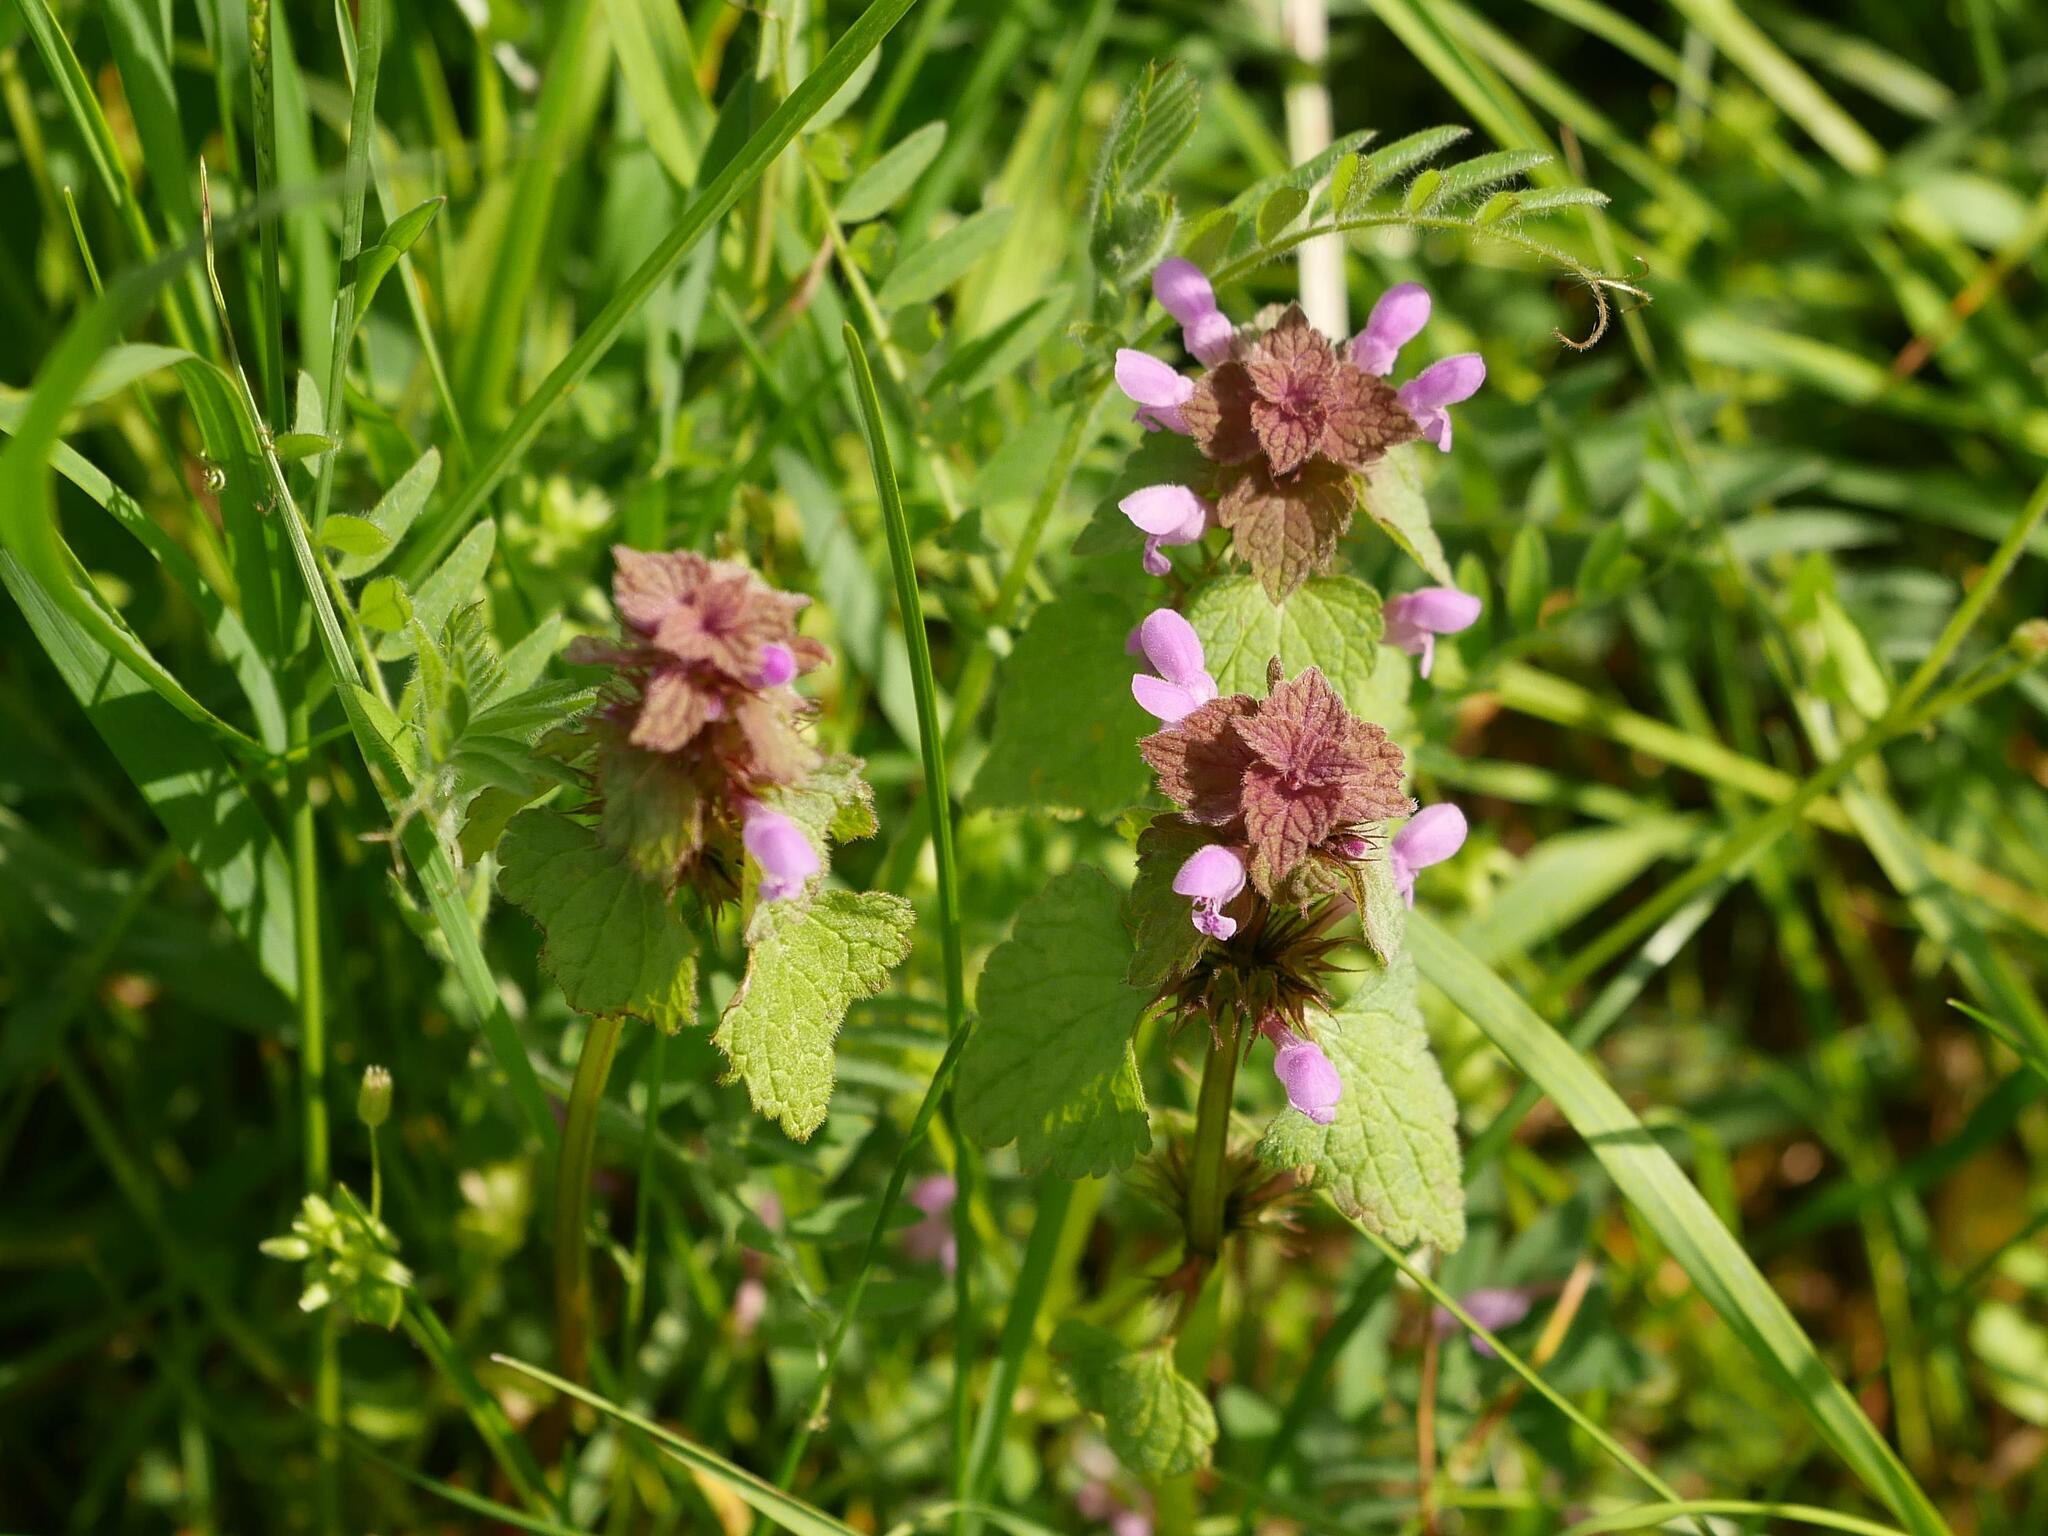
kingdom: Plantae
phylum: Tracheophyta
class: Magnoliopsida
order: Lamiales
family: Lamiaceae
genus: Lamium
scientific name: Lamium purpureum
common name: Red dead-nettle
